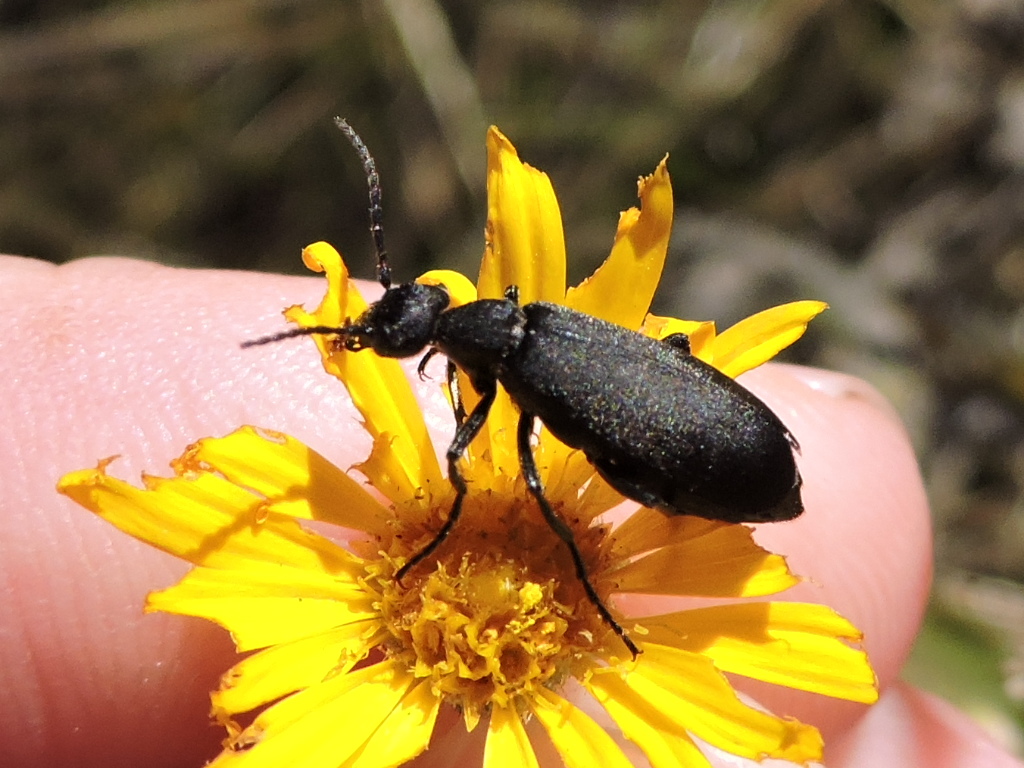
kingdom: Animalia
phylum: Arthropoda
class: Insecta
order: Coleoptera
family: Meloidae
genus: Epicauta
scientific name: Epicauta pensylvanica
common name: Black blister beetle
